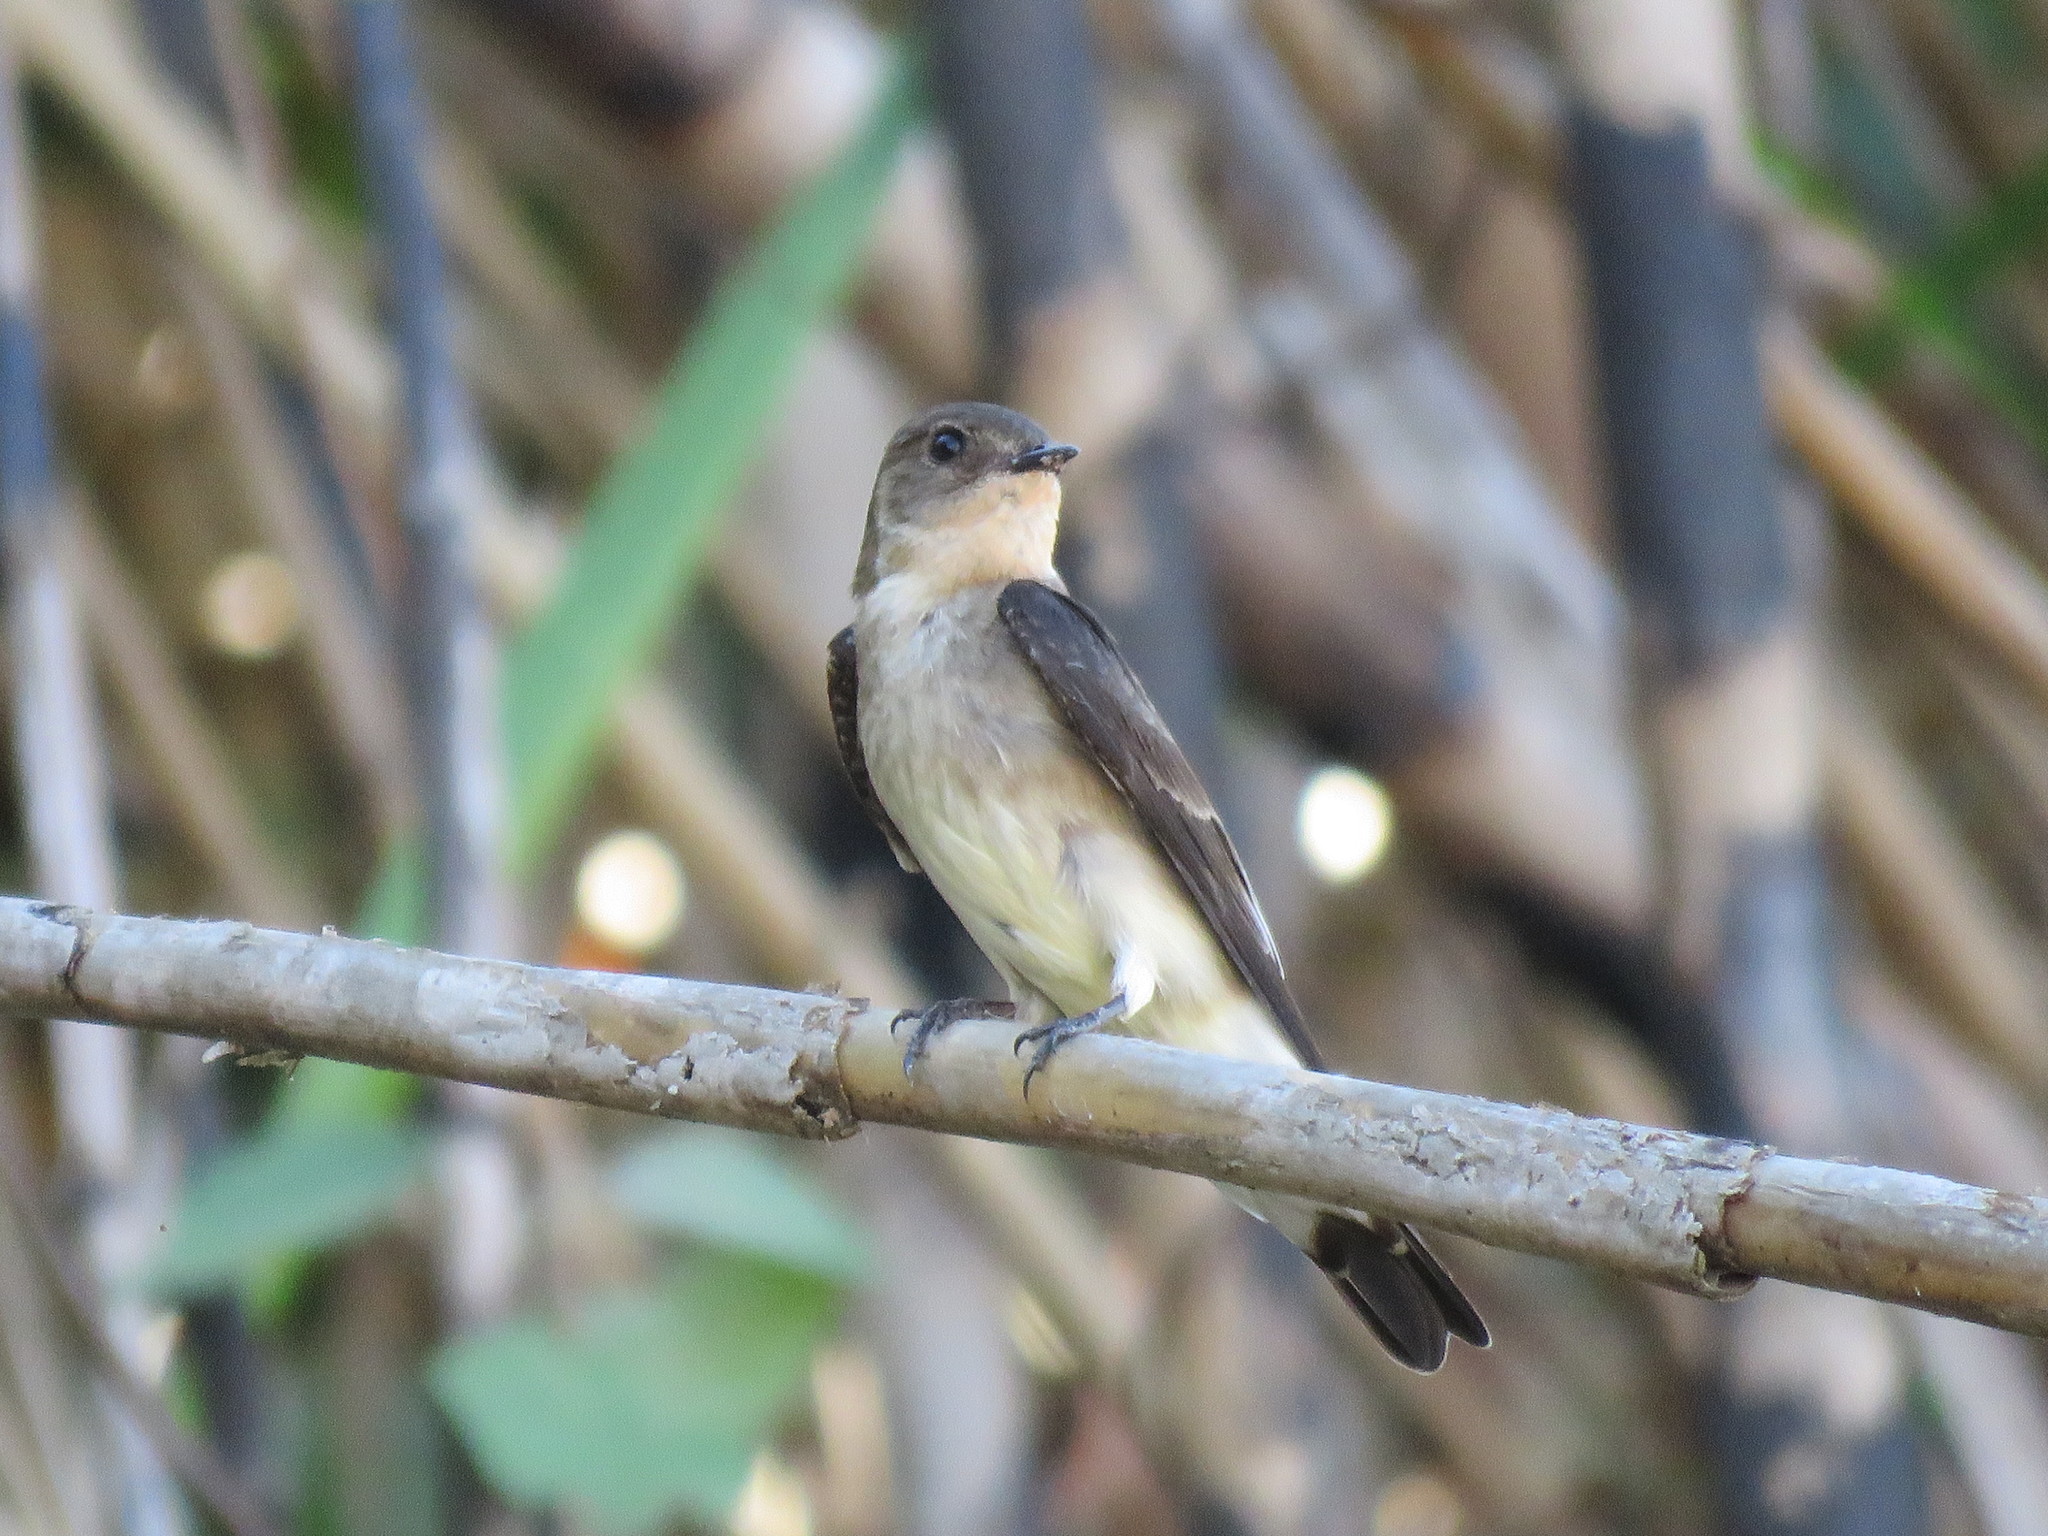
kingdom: Animalia
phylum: Chordata
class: Aves
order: Passeriformes
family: Hirundinidae
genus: Stelgidopteryx
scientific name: Stelgidopteryx ruficollis
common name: Southern rough-winged swallow
